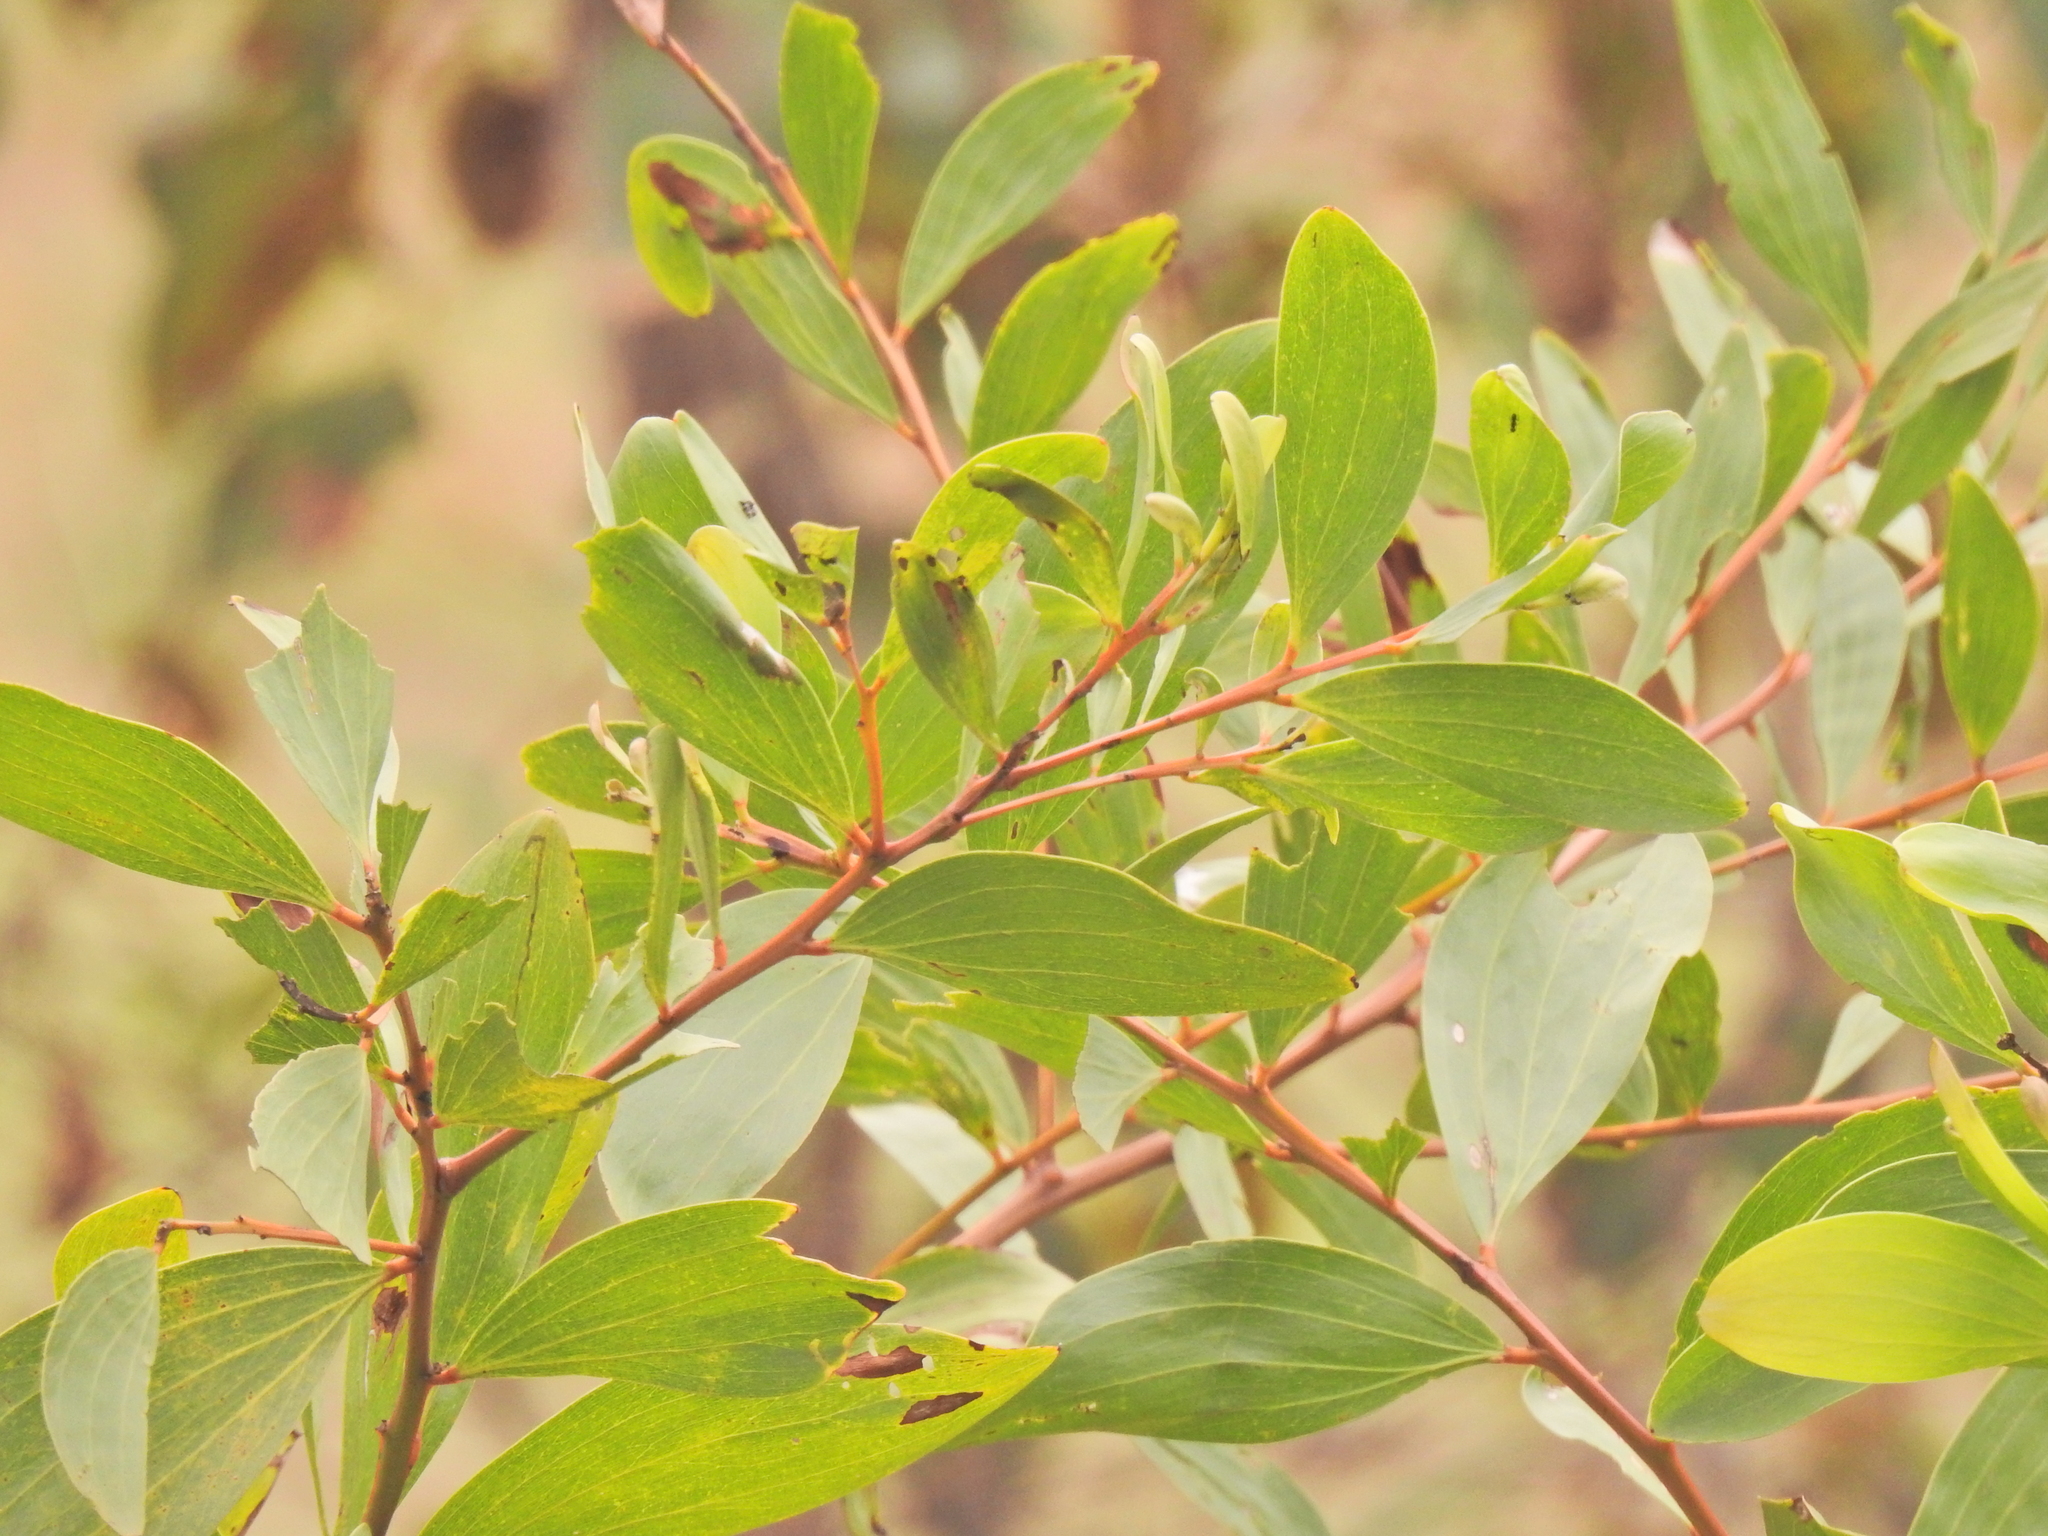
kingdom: Plantae
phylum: Tracheophyta
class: Magnoliopsida
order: Fabales
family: Fabaceae
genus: Acacia
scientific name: Acacia leiocalyx
